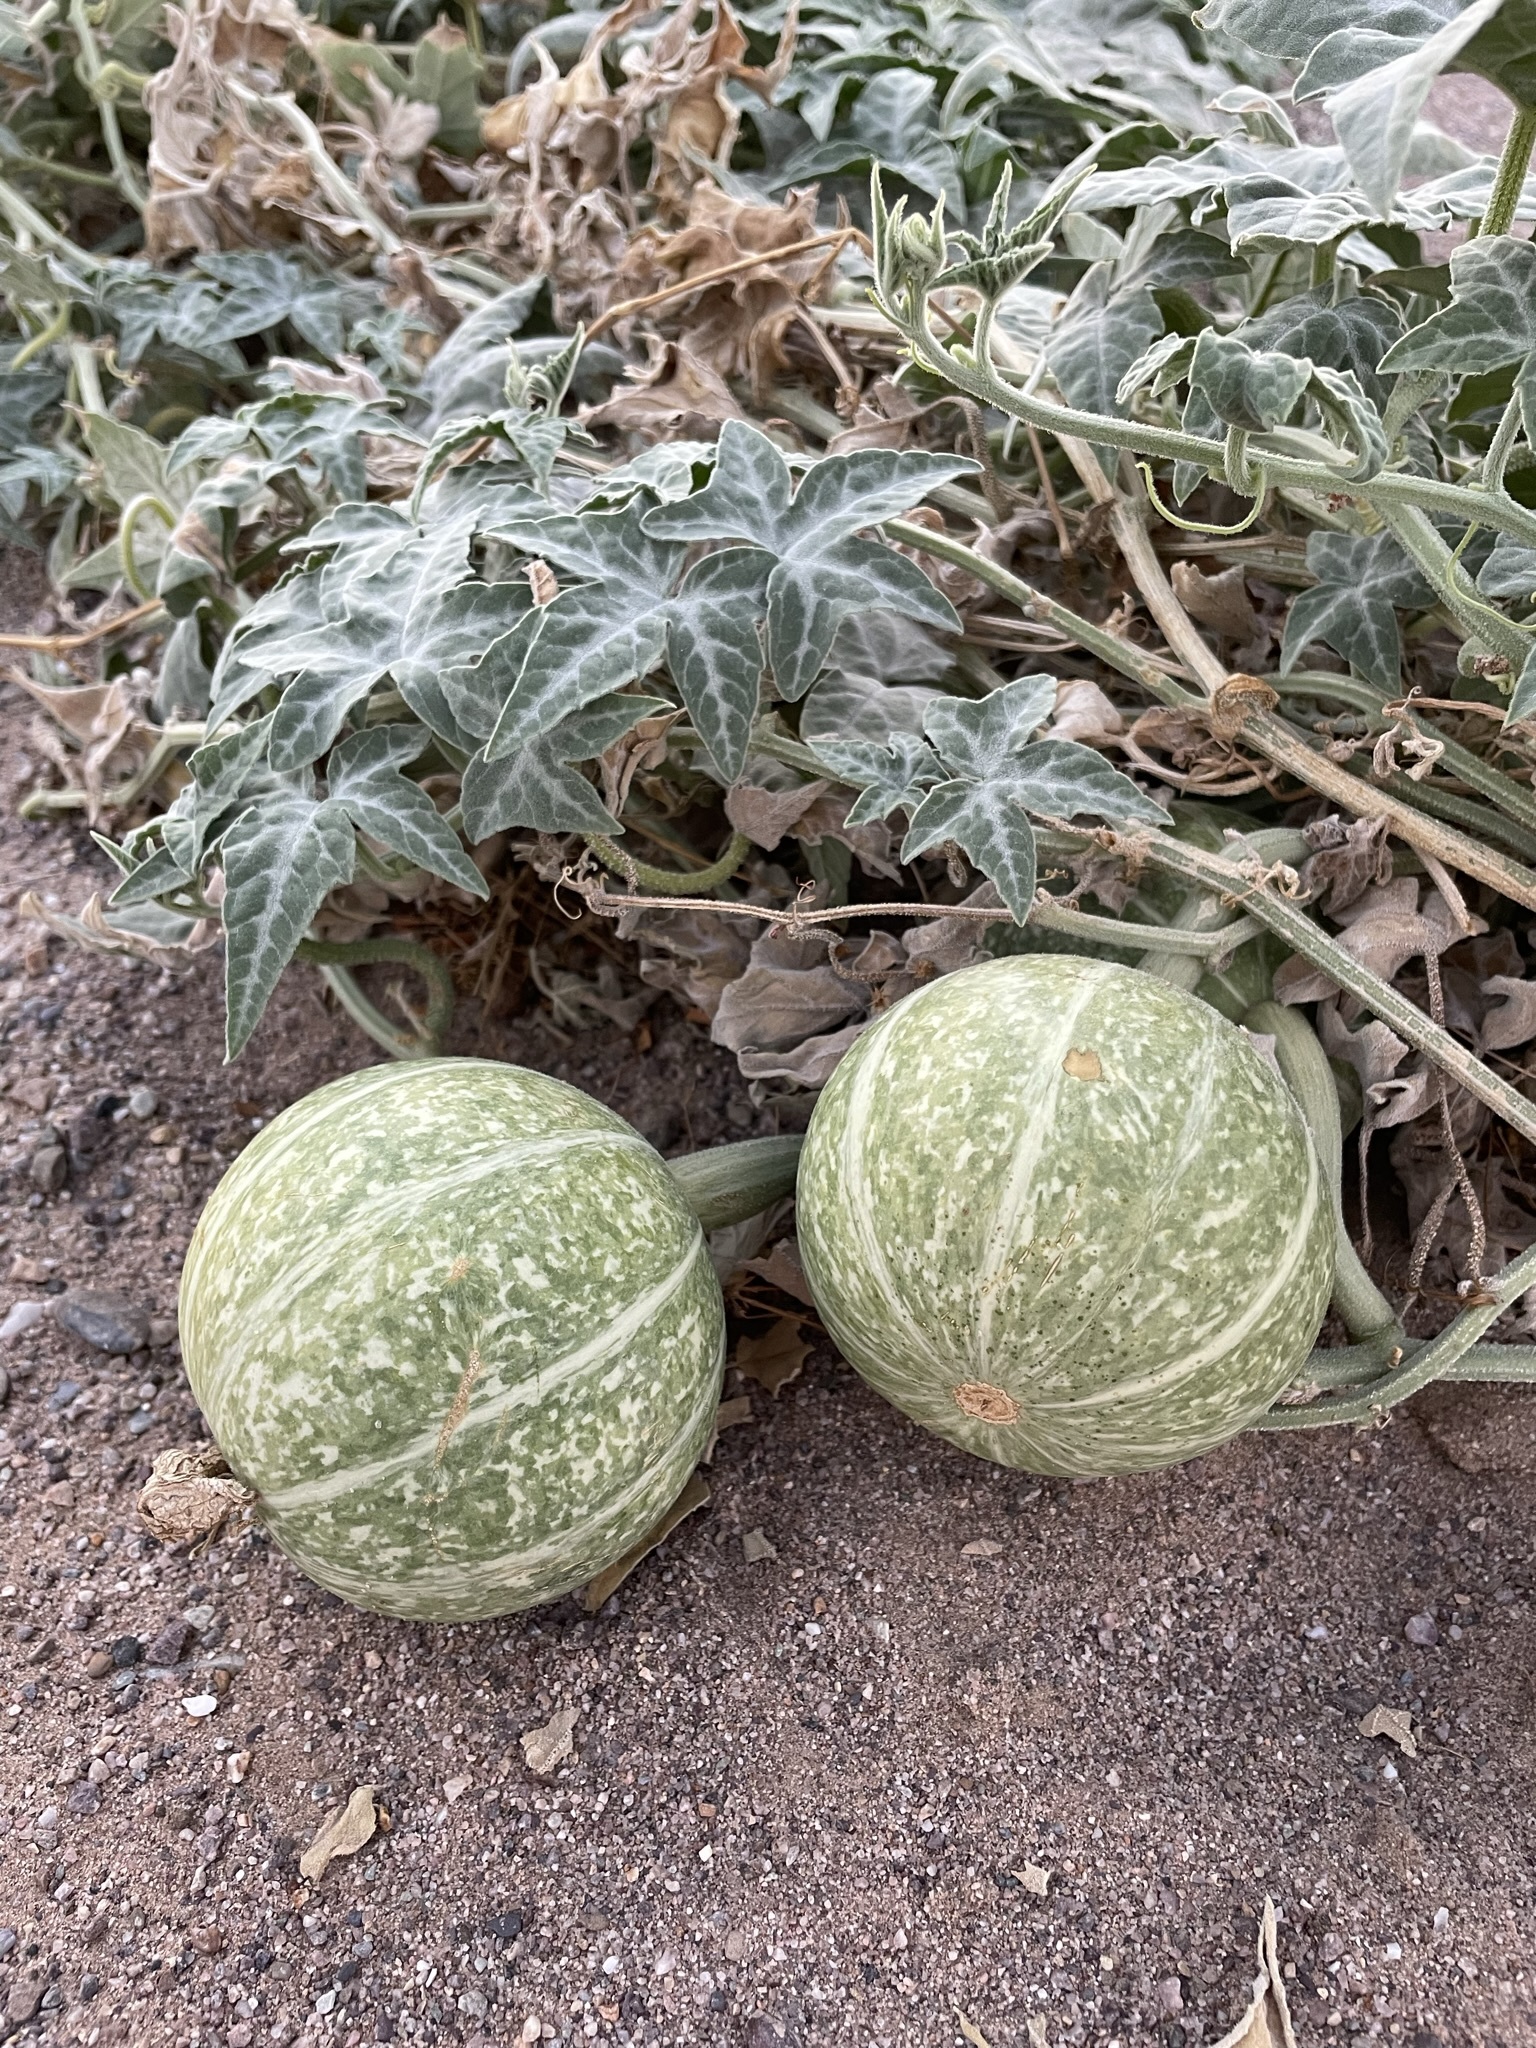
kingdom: Plantae
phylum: Tracheophyta
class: Magnoliopsida
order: Cucurbitales
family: Cucurbitaceae
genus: Cucurbita
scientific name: Cucurbita palmata
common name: Coyote-melon
